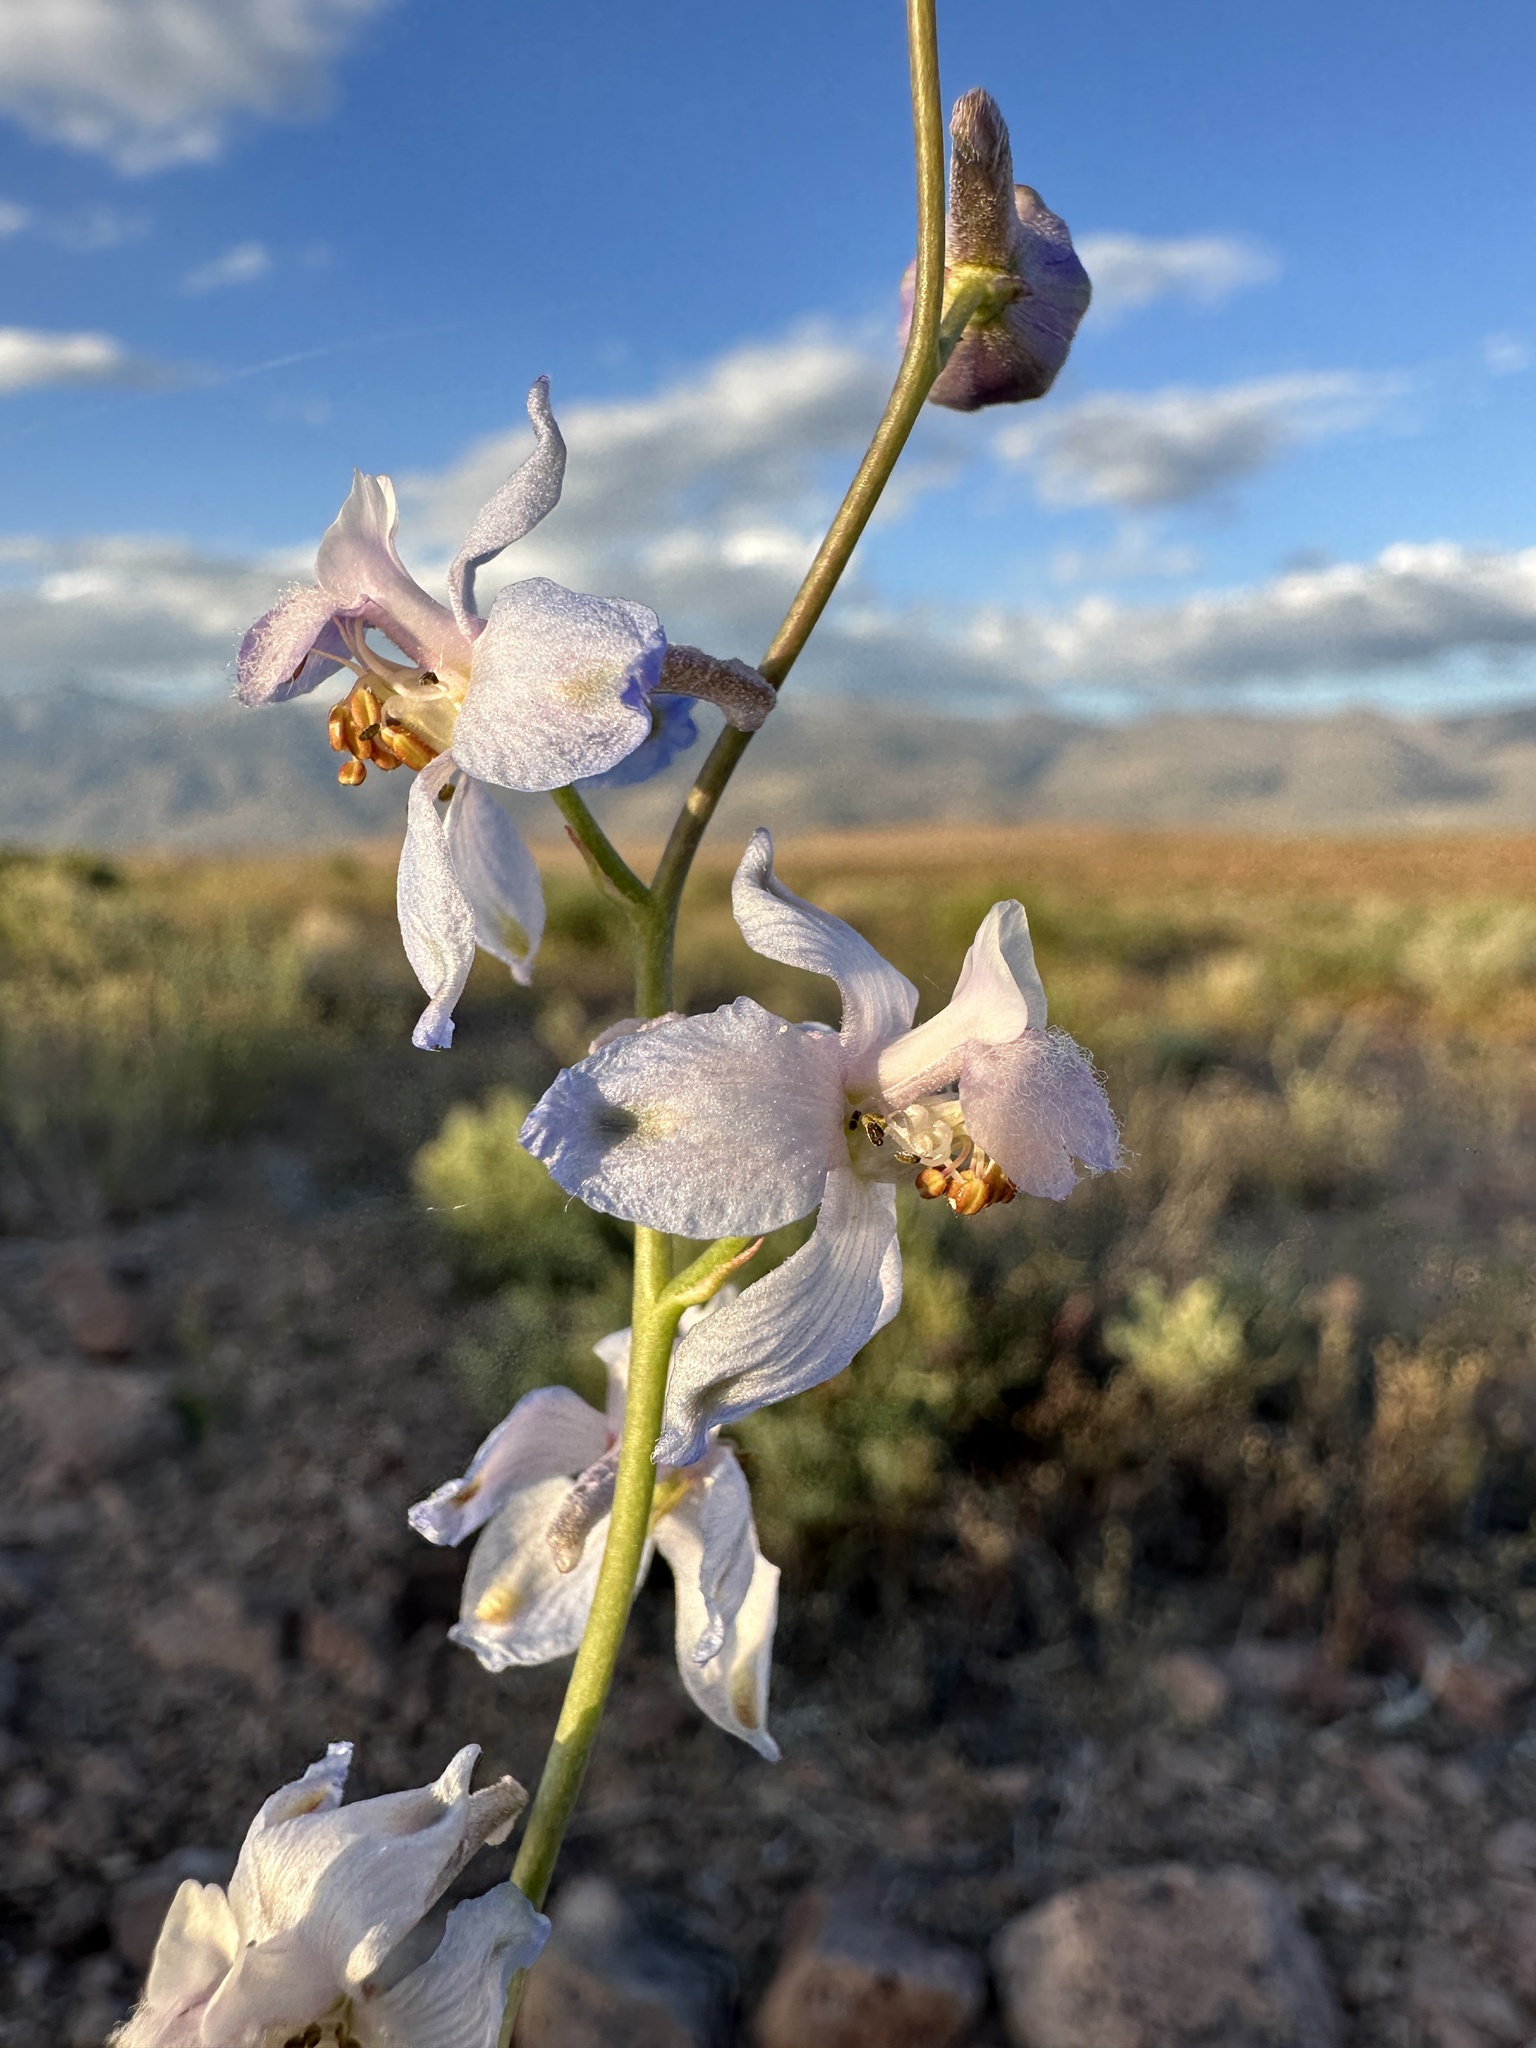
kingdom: Plantae
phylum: Tracheophyta
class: Magnoliopsida
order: Ranunculales
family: Ranunculaceae
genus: Delphinium
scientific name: Delphinium parishii
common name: Apache larkspur
